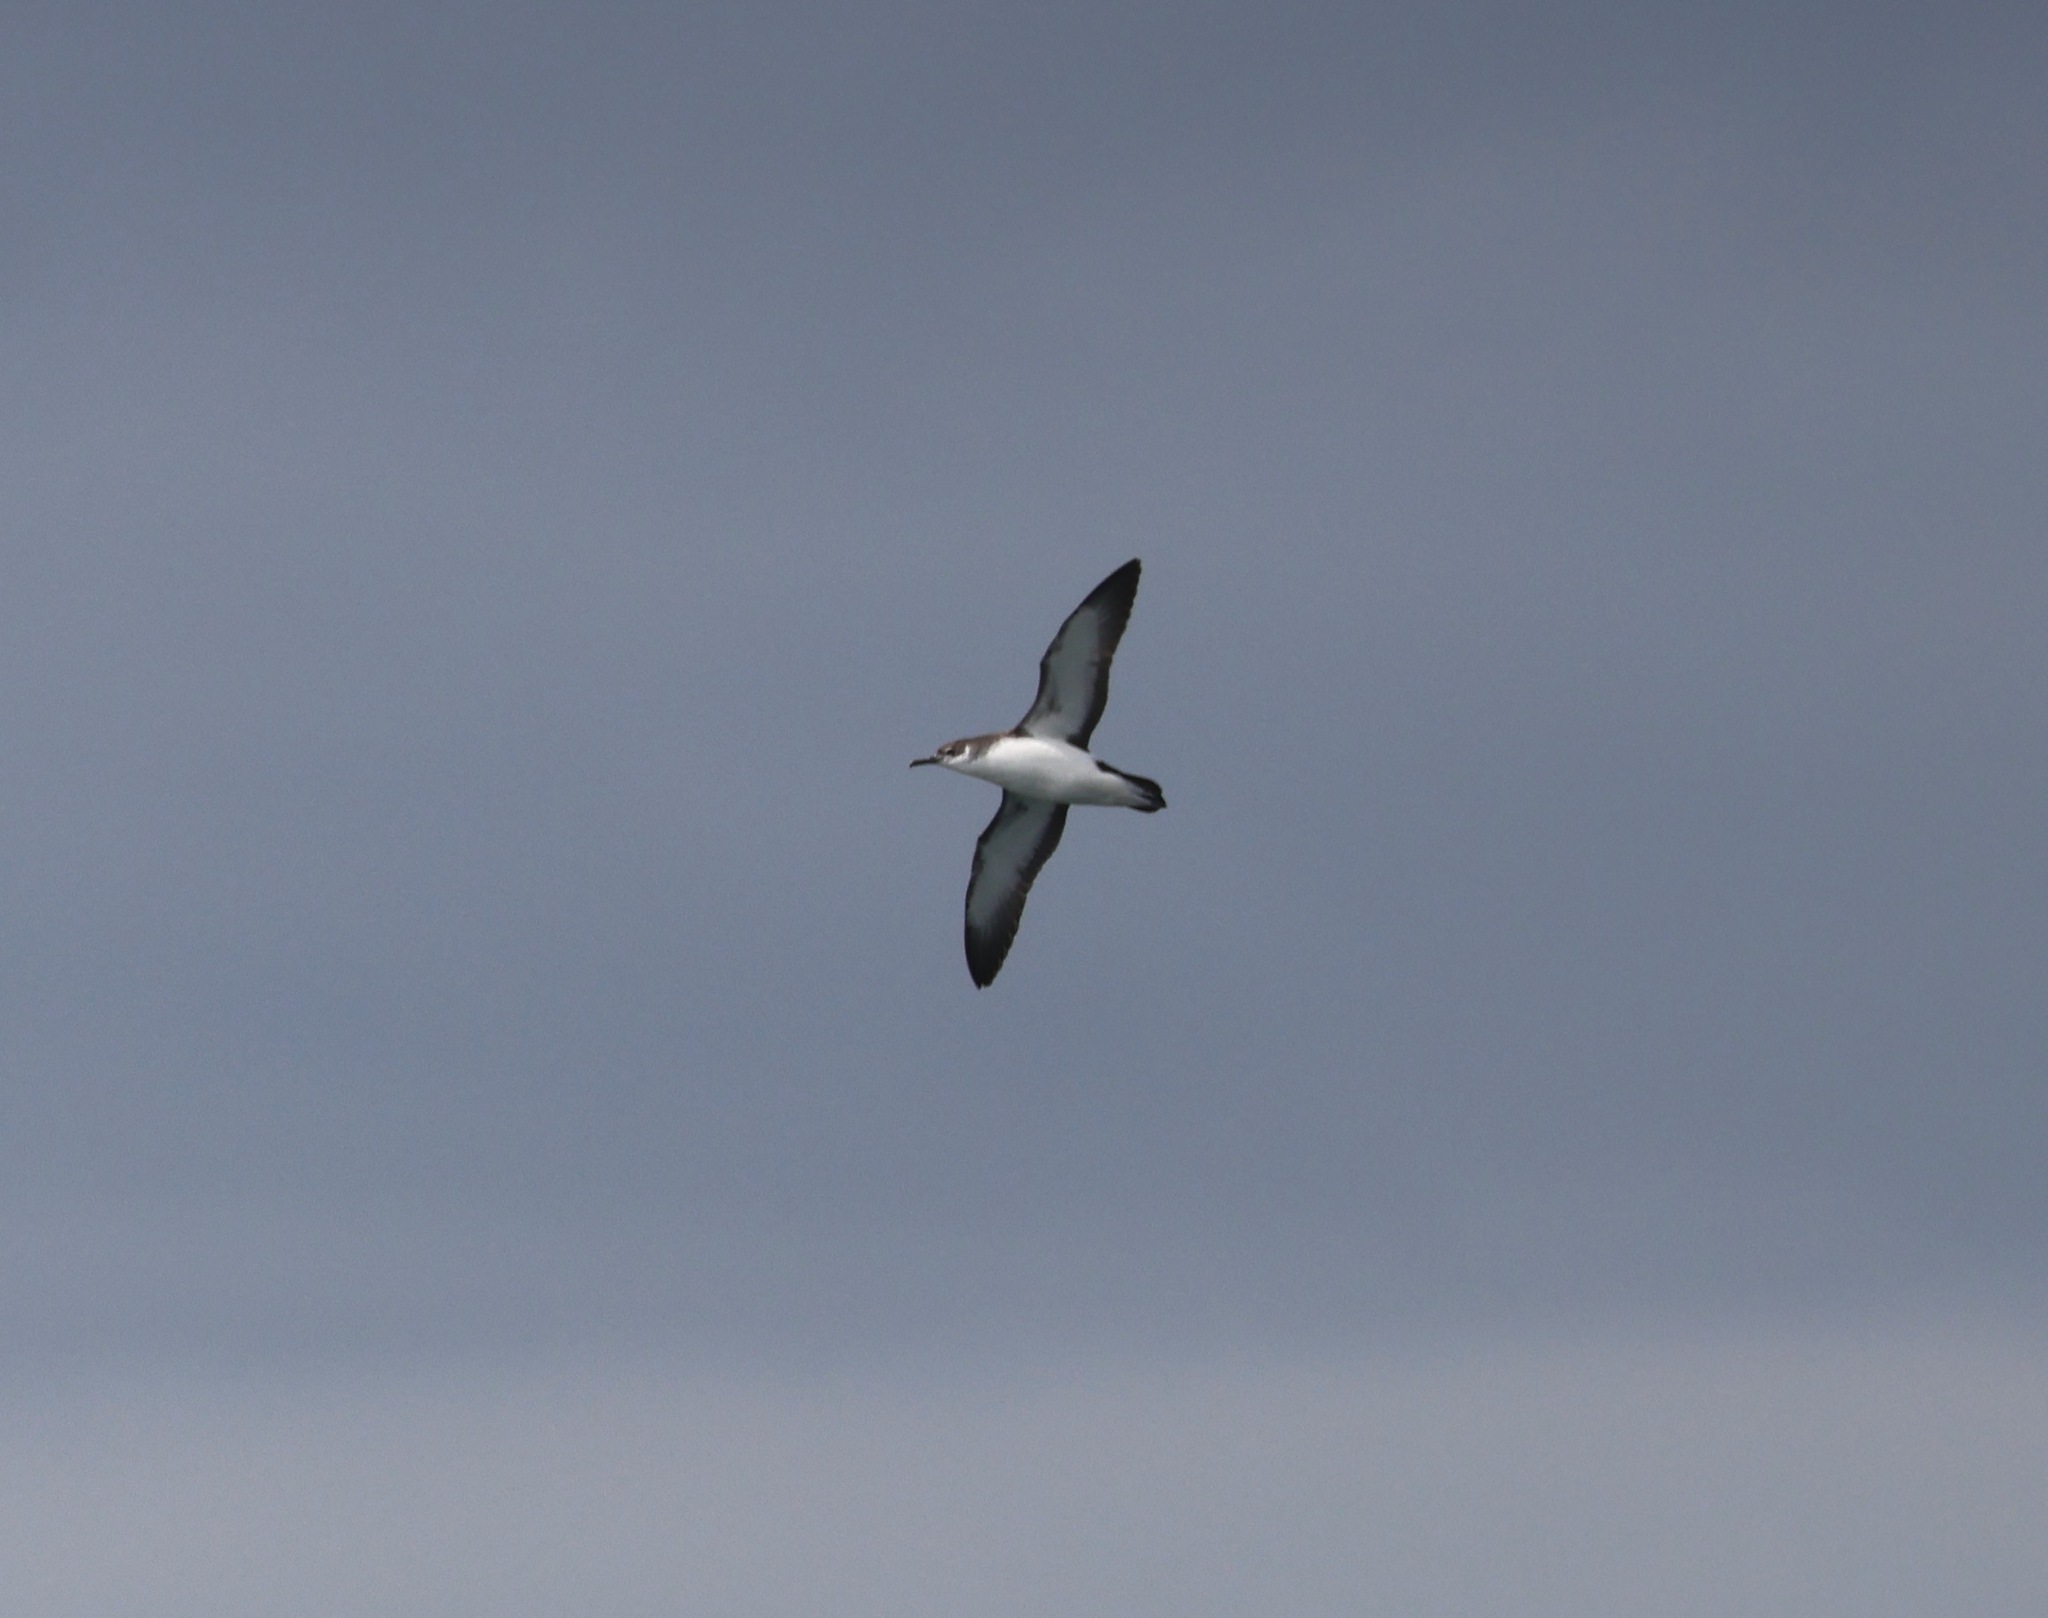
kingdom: Animalia
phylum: Chordata
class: Aves
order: Procellariiformes
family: Procellariidae
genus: Puffinus
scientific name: Puffinus puffinus
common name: Manx shearwater
